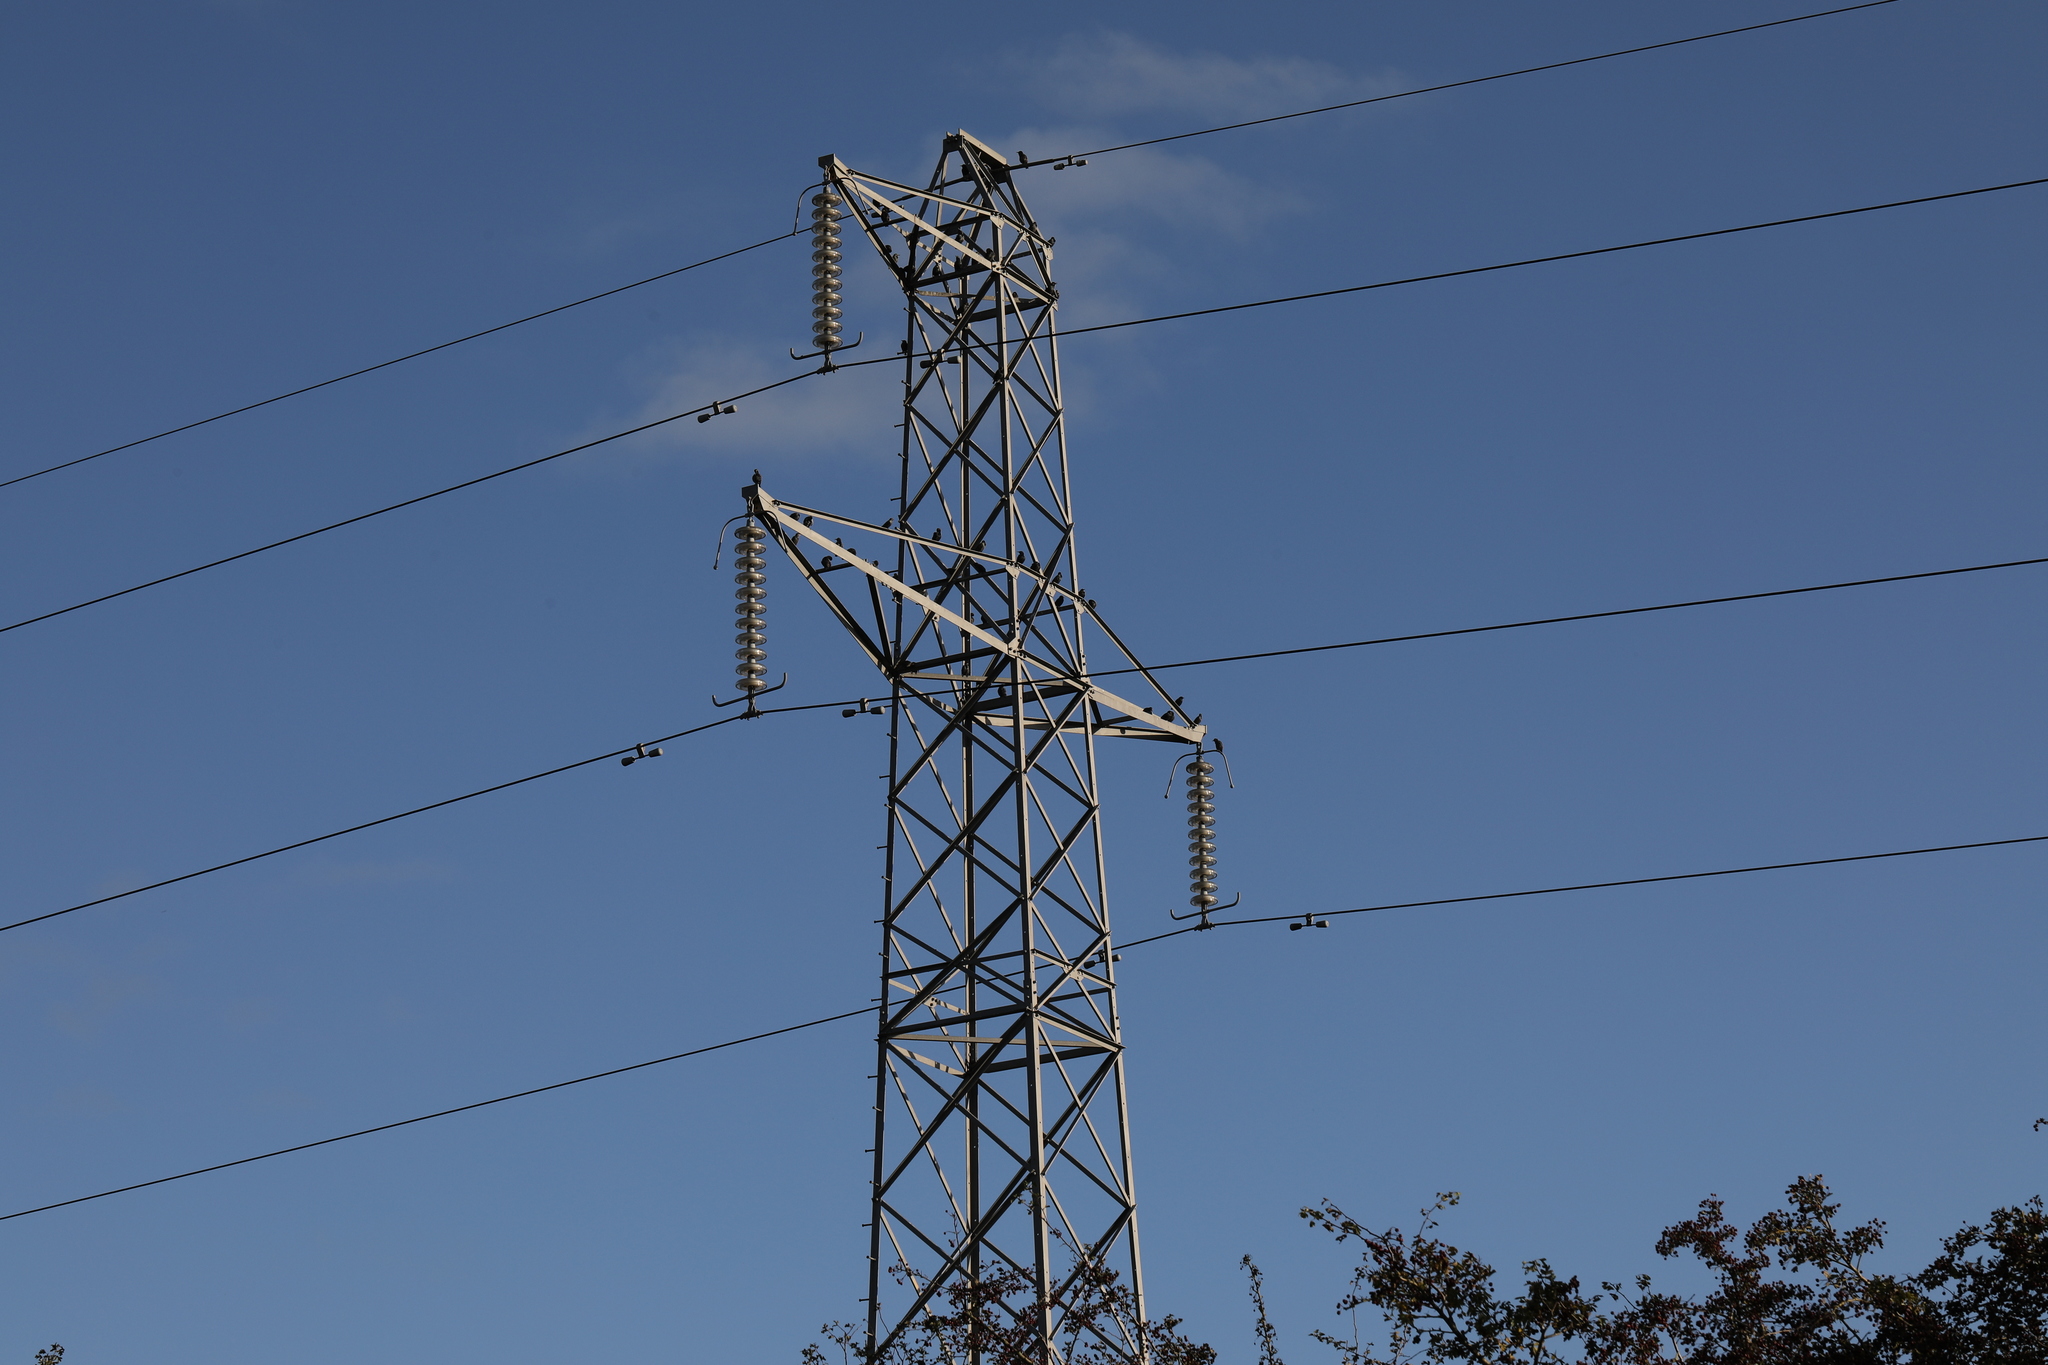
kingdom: Animalia
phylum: Chordata
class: Aves
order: Passeriformes
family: Sturnidae
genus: Sturnus
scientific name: Sturnus vulgaris
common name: Common starling
